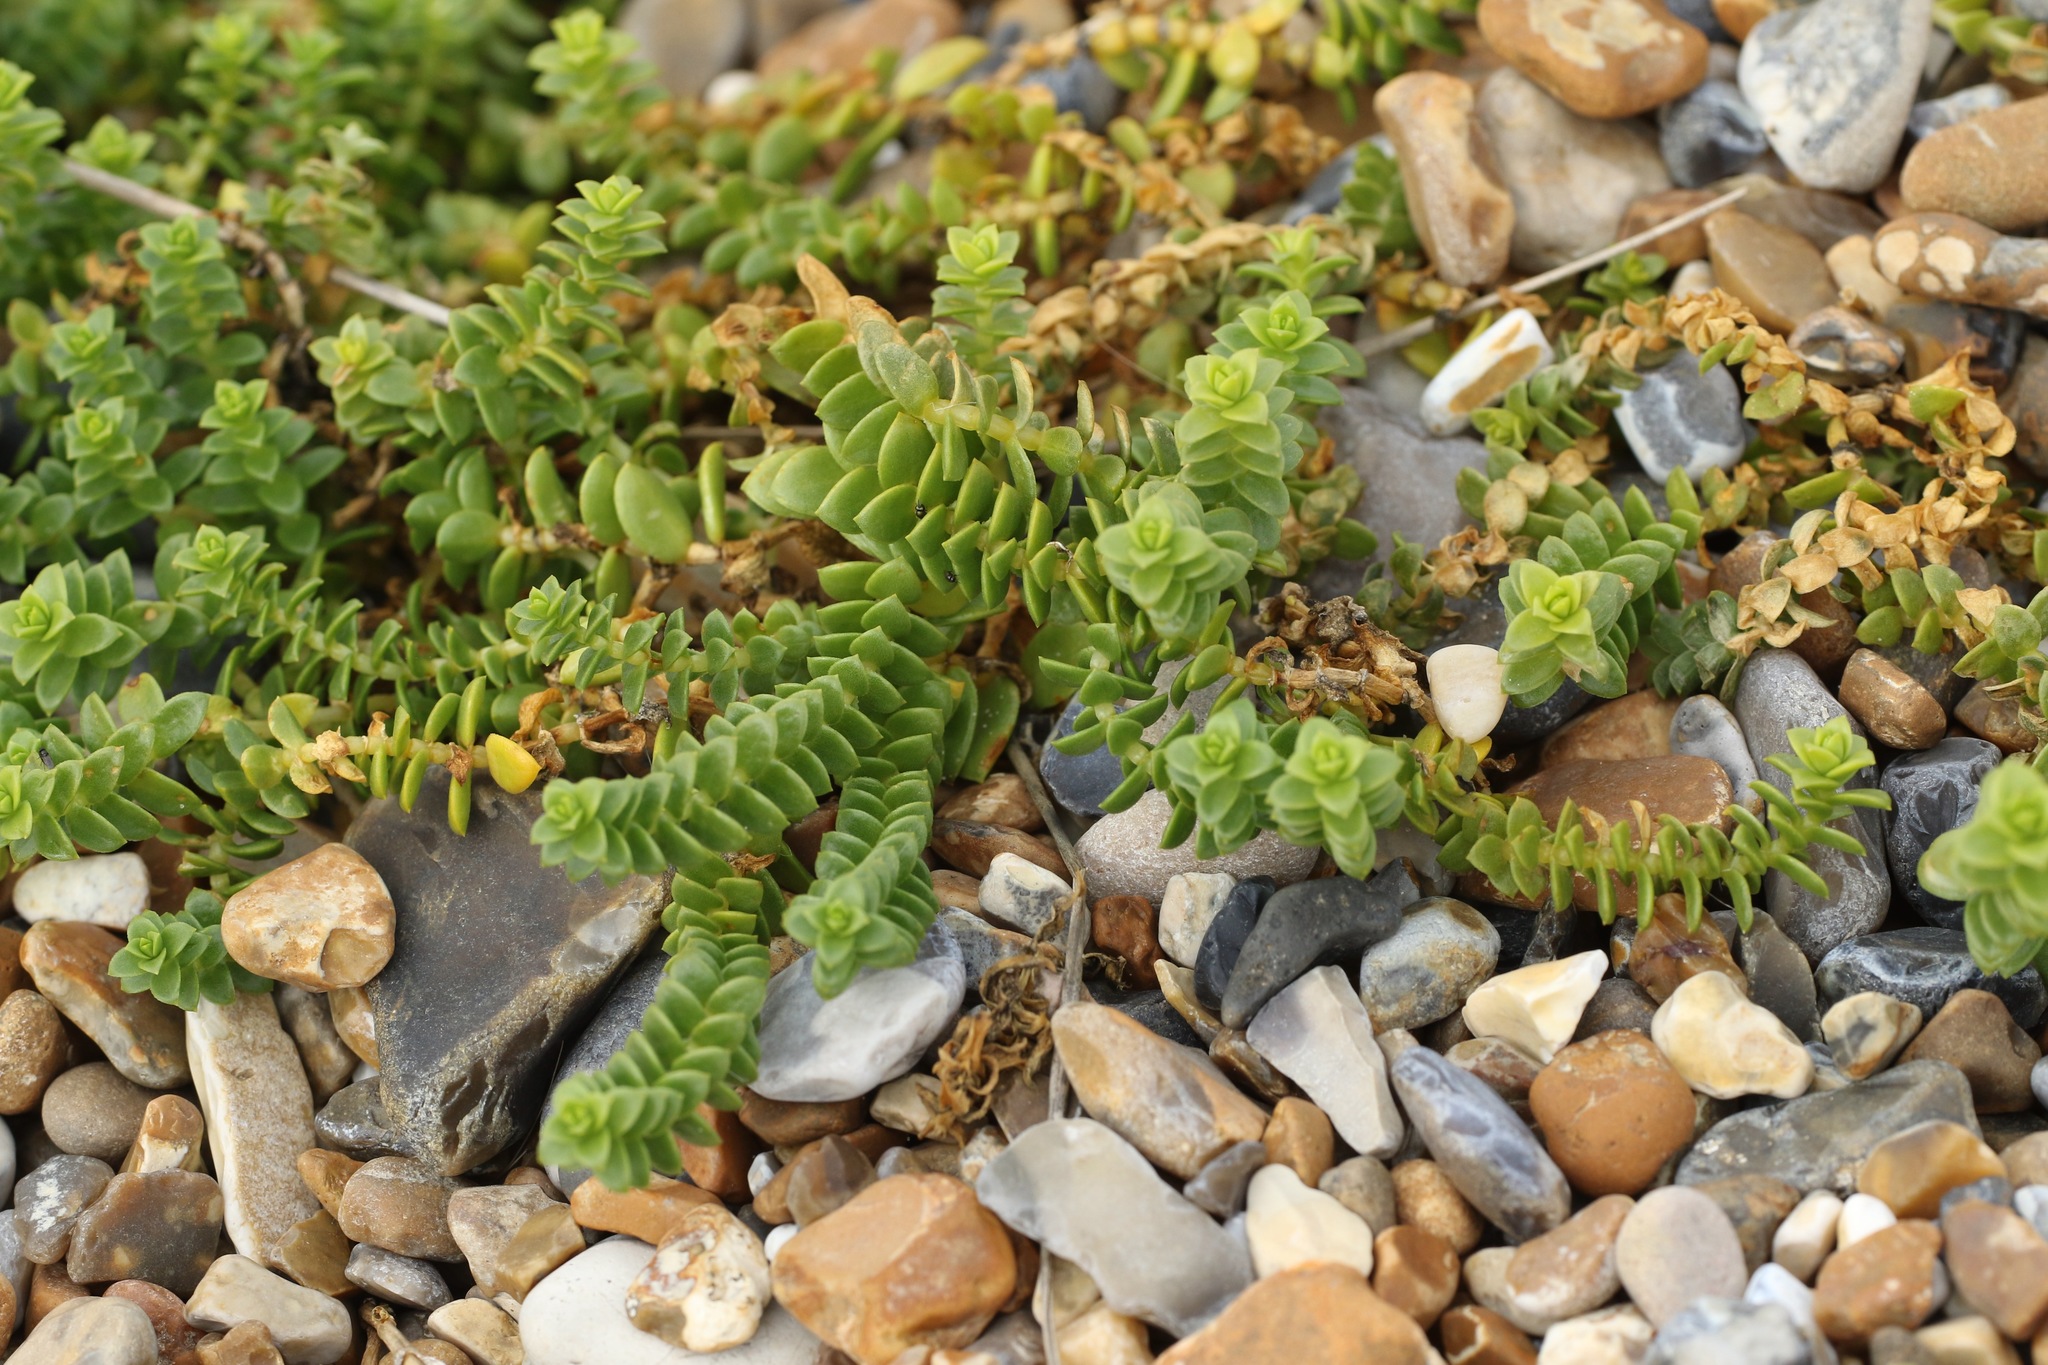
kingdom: Plantae
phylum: Tracheophyta
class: Magnoliopsida
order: Caryophyllales
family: Caryophyllaceae
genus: Honckenya
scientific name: Honckenya peploides
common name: Sea sandwort
